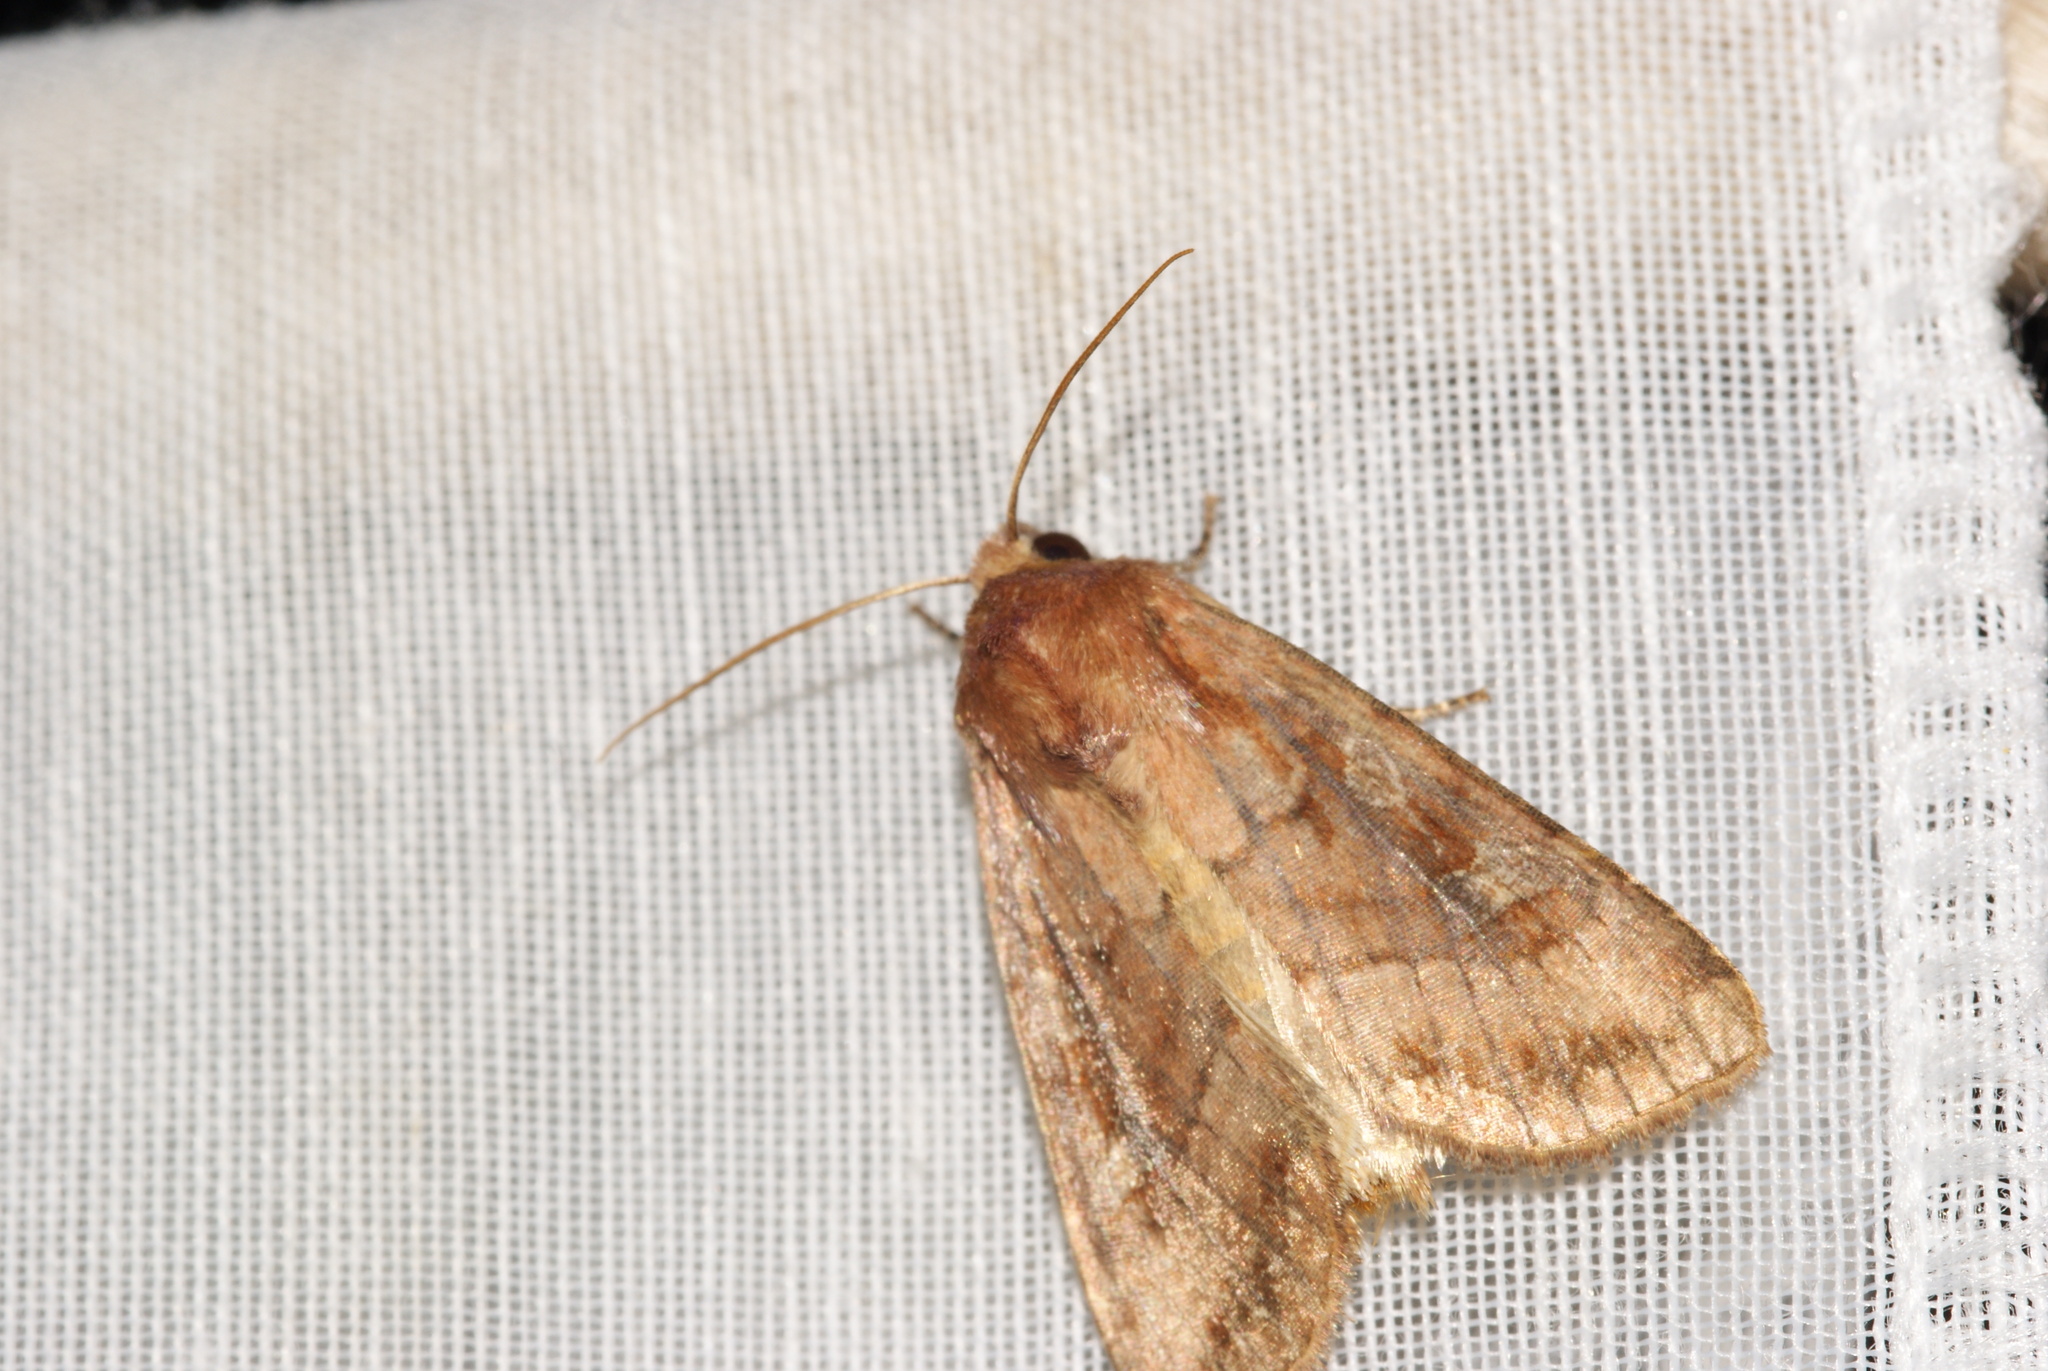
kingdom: Animalia
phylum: Arthropoda
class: Insecta
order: Lepidoptera
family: Noctuidae
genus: Lacanobia
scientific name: Lacanobia splendens
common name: Splendid brocade
